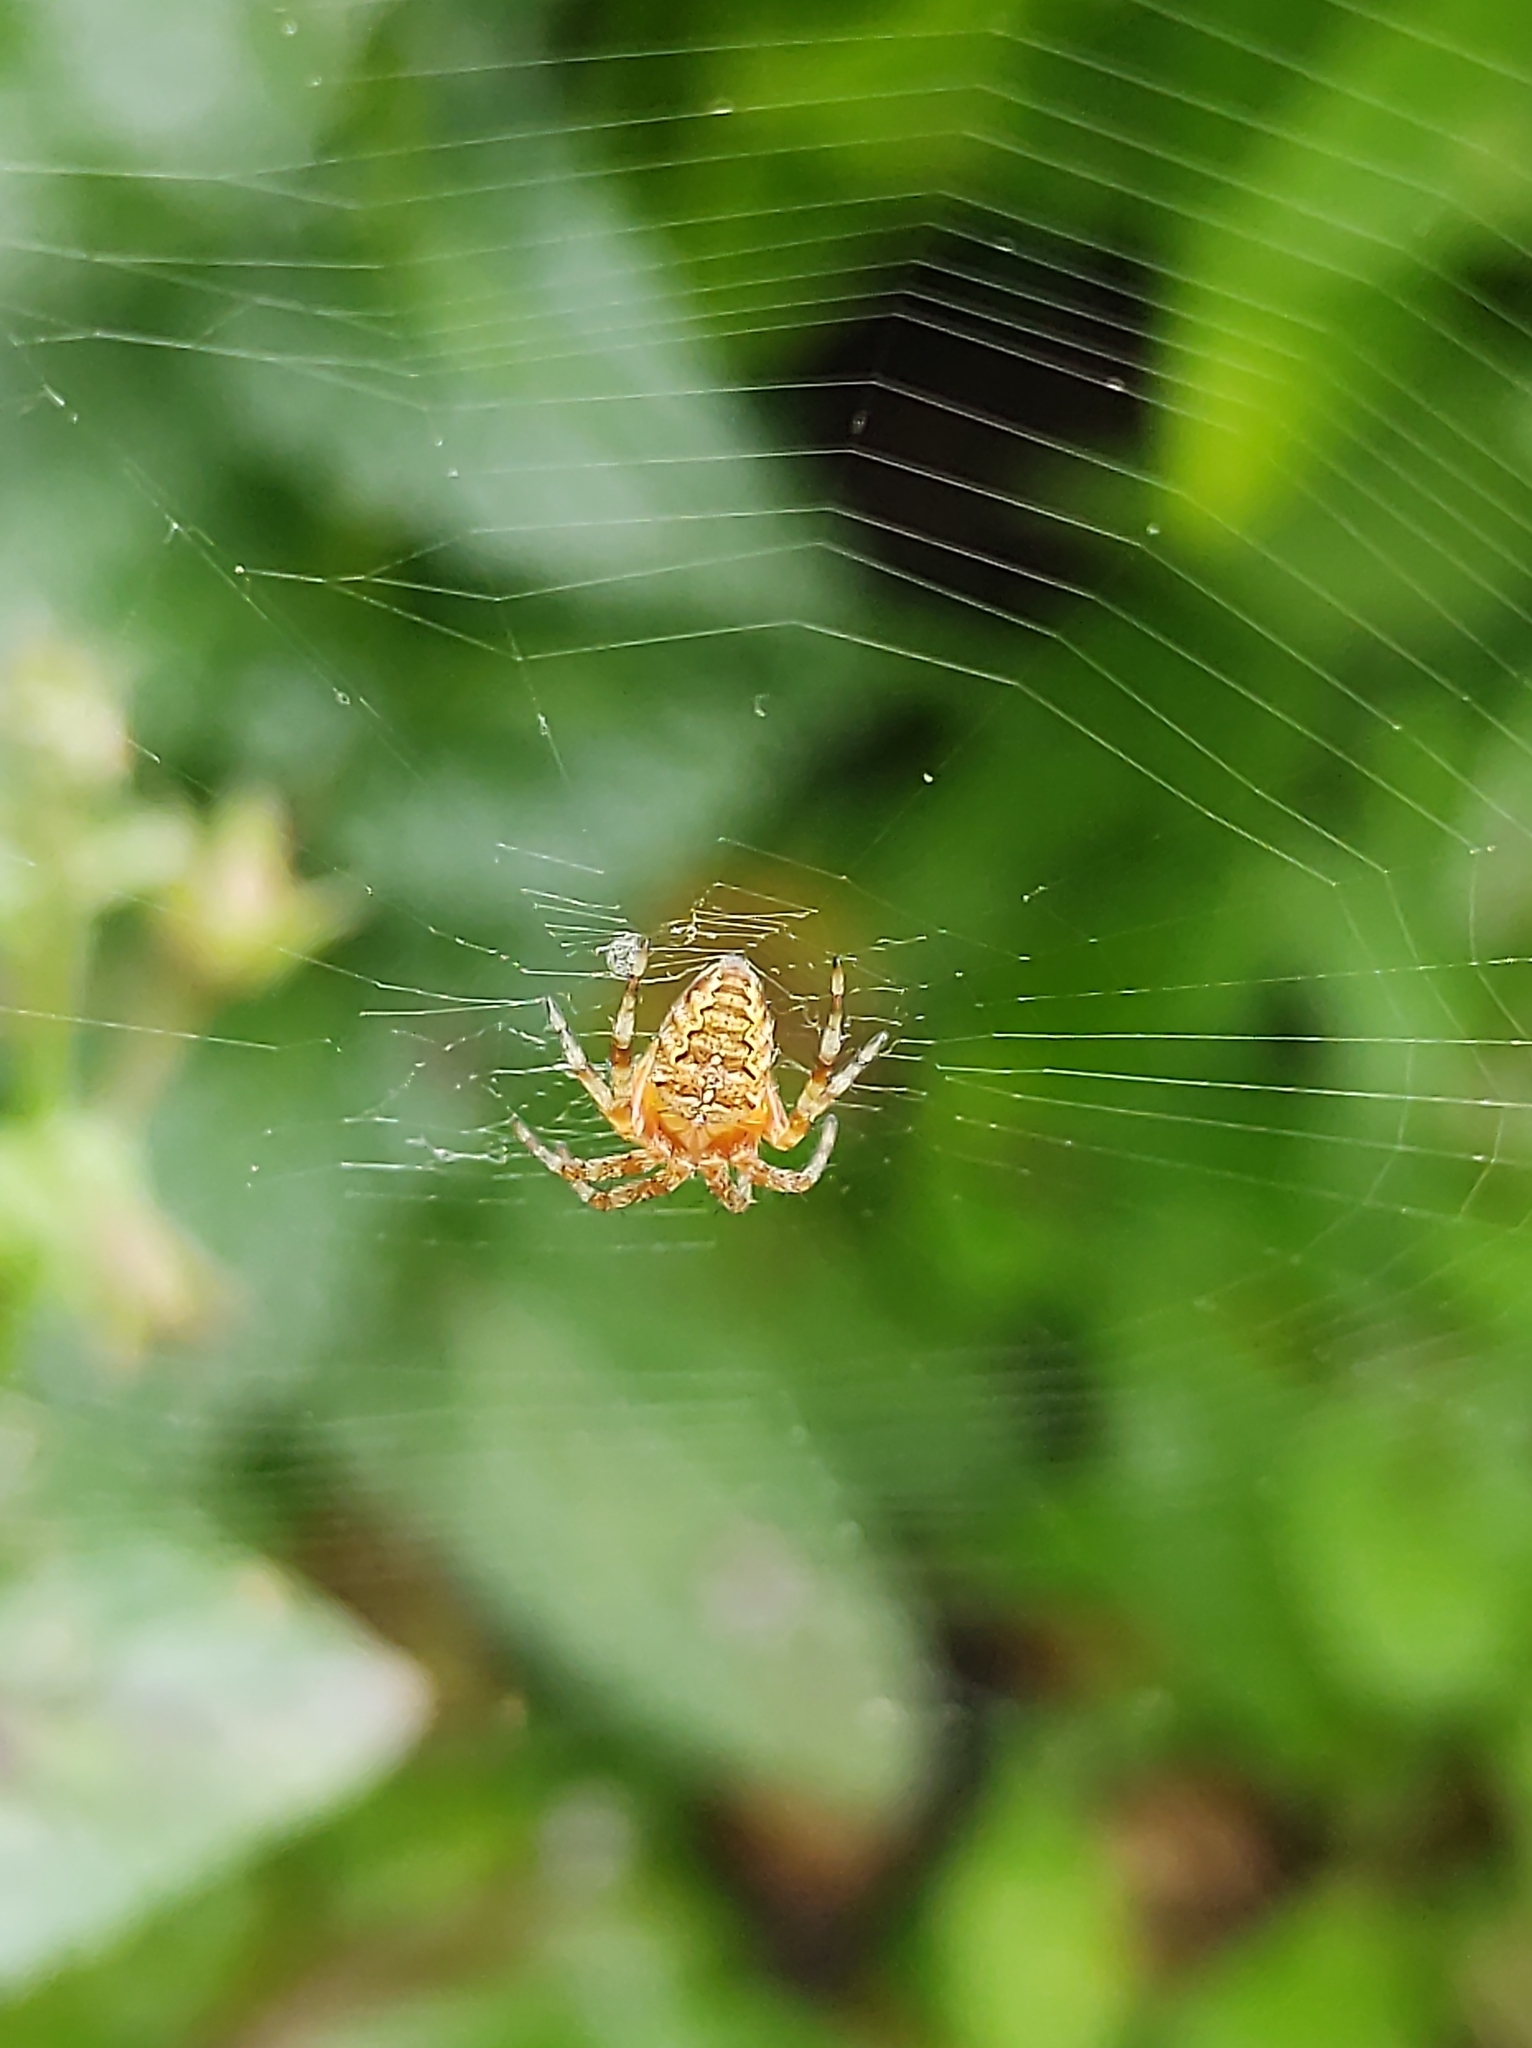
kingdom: Animalia
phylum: Arthropoda
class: Arachnida
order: Araneae
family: Araneidae
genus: Araneus
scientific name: Araneus diadematus
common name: Cross orbweaver
